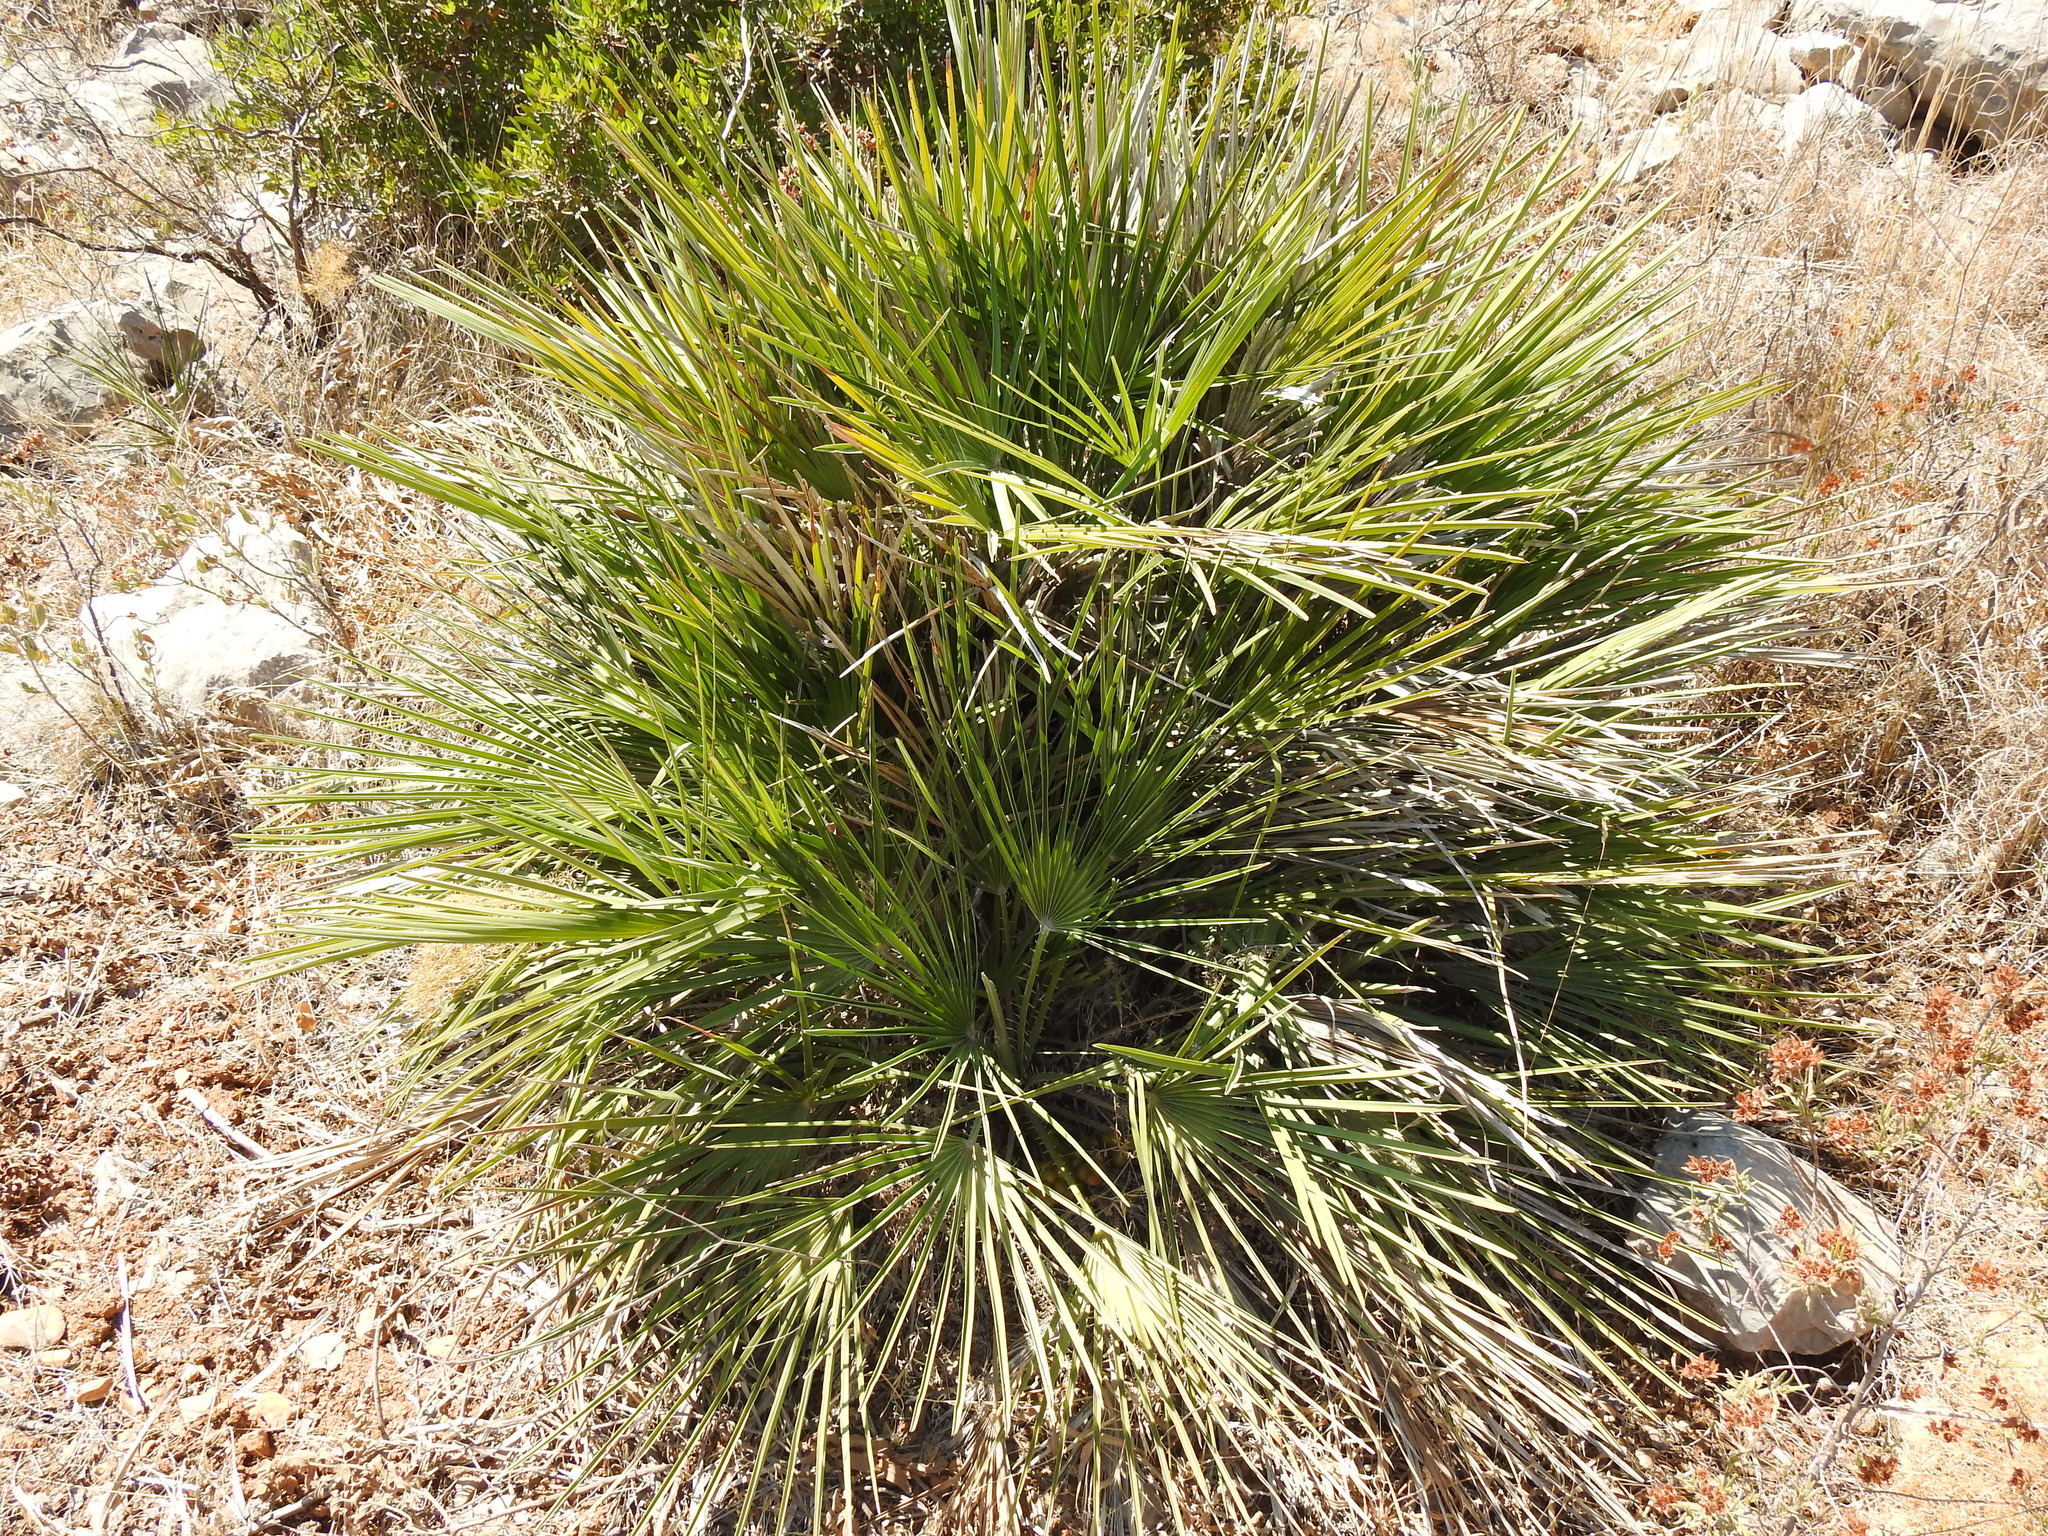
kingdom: Plantae
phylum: Tracheophyta
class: Liliopsida
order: Arecales
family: Arecaceae
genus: Chamaerops
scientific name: Chamaerops humilis
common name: Dwarf fan palm
